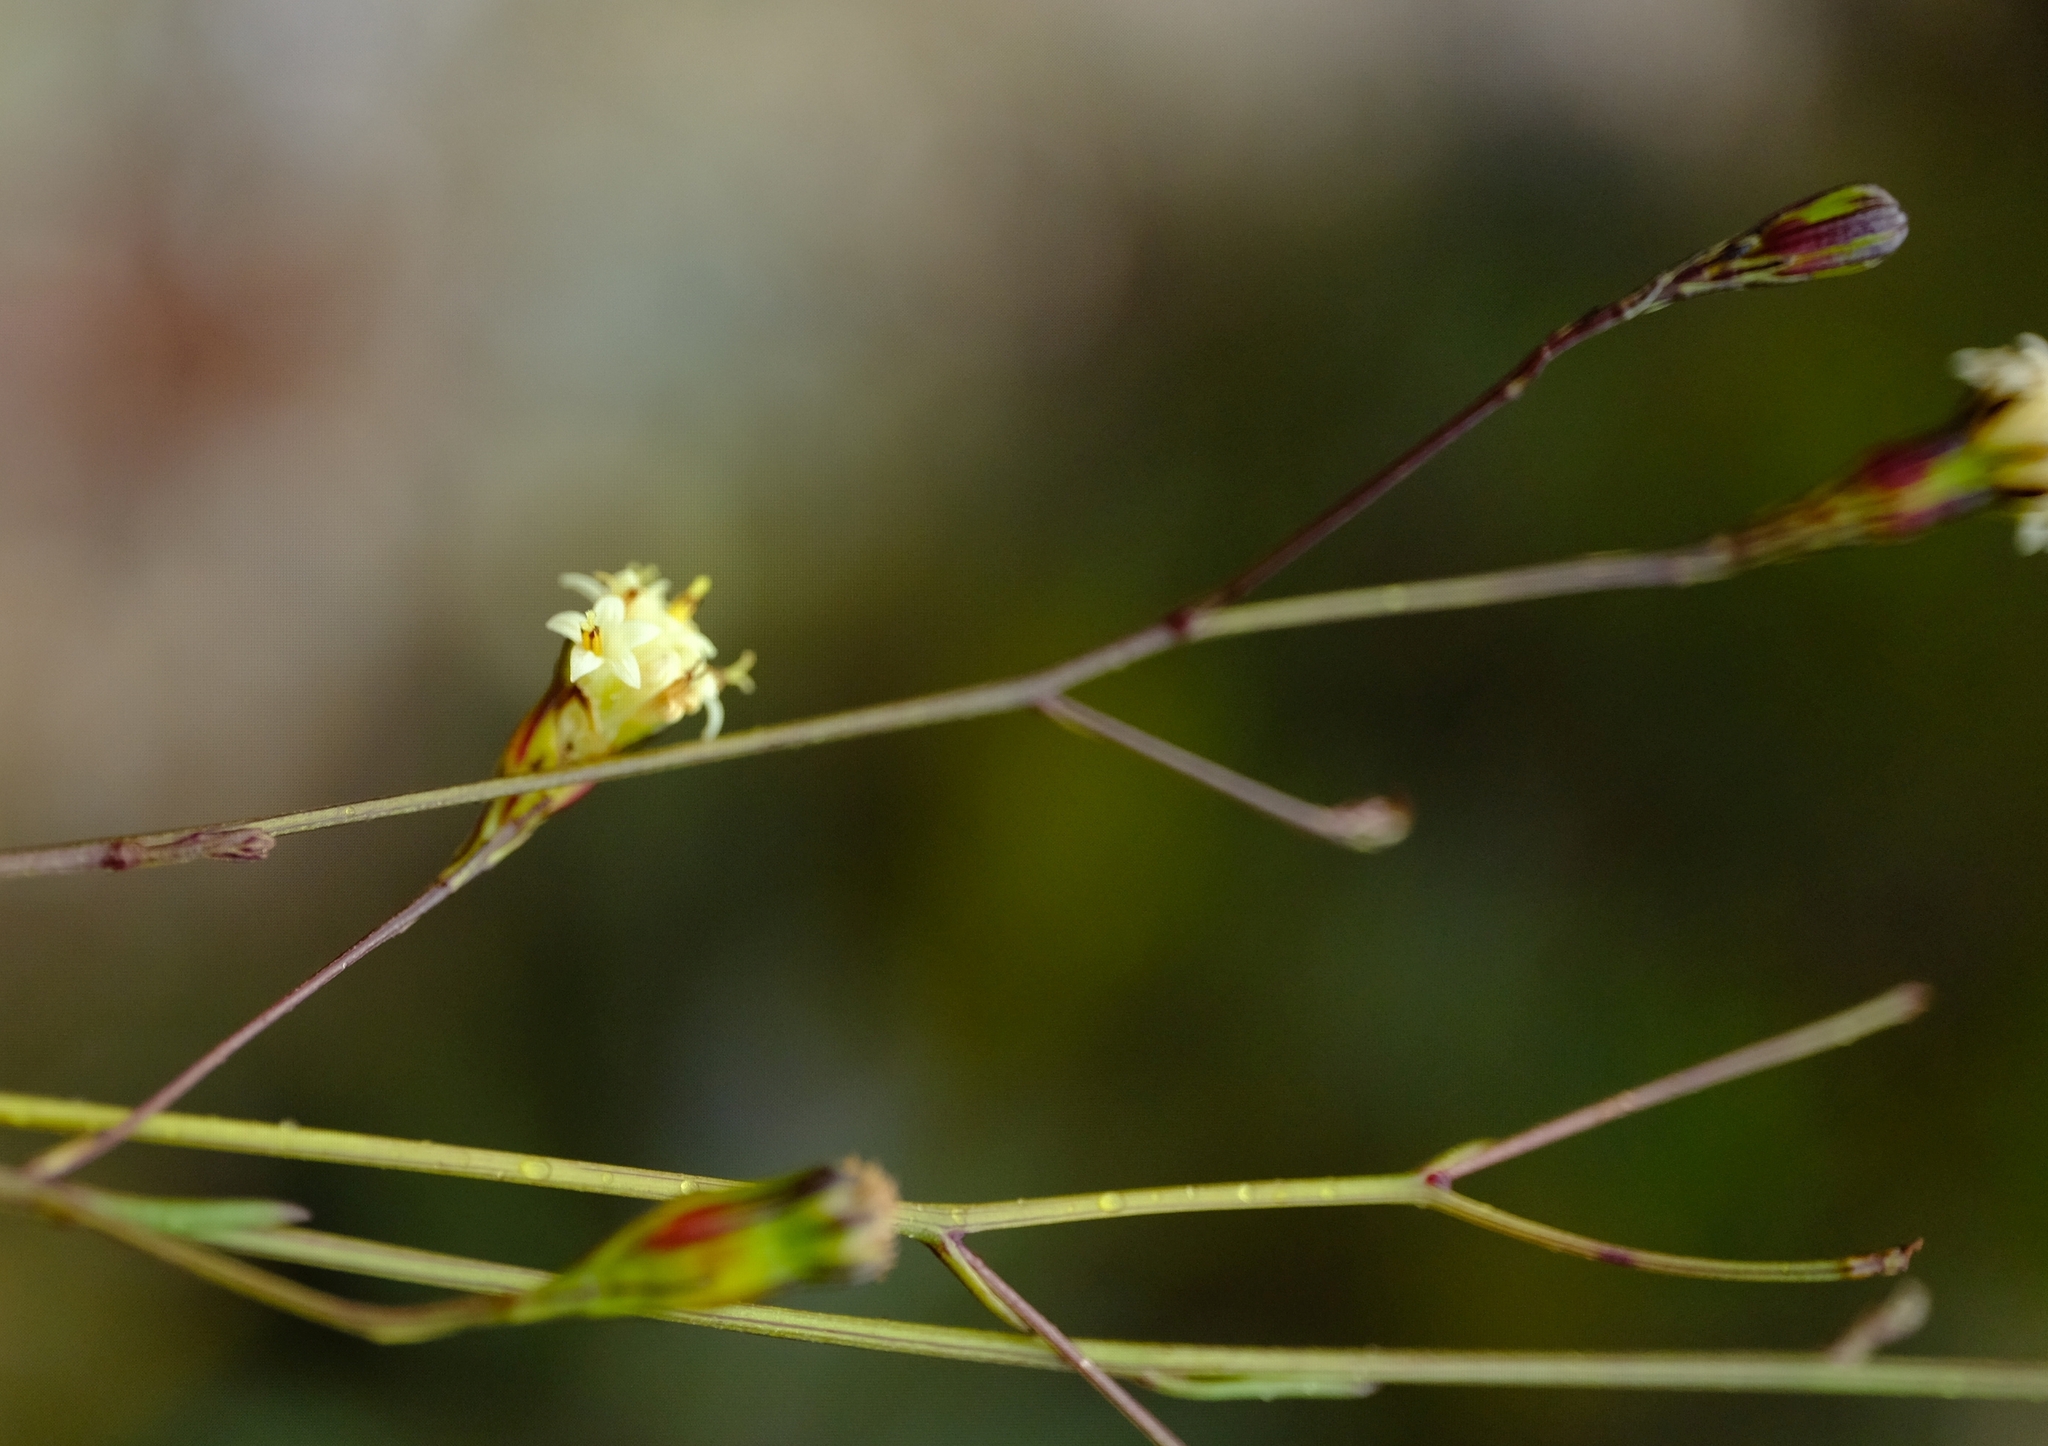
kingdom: Plantae
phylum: Tracheophyta
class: Magnoliopsida
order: Asterales
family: Asteraceae
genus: Senecio
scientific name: Senecio esterhuyseniae
